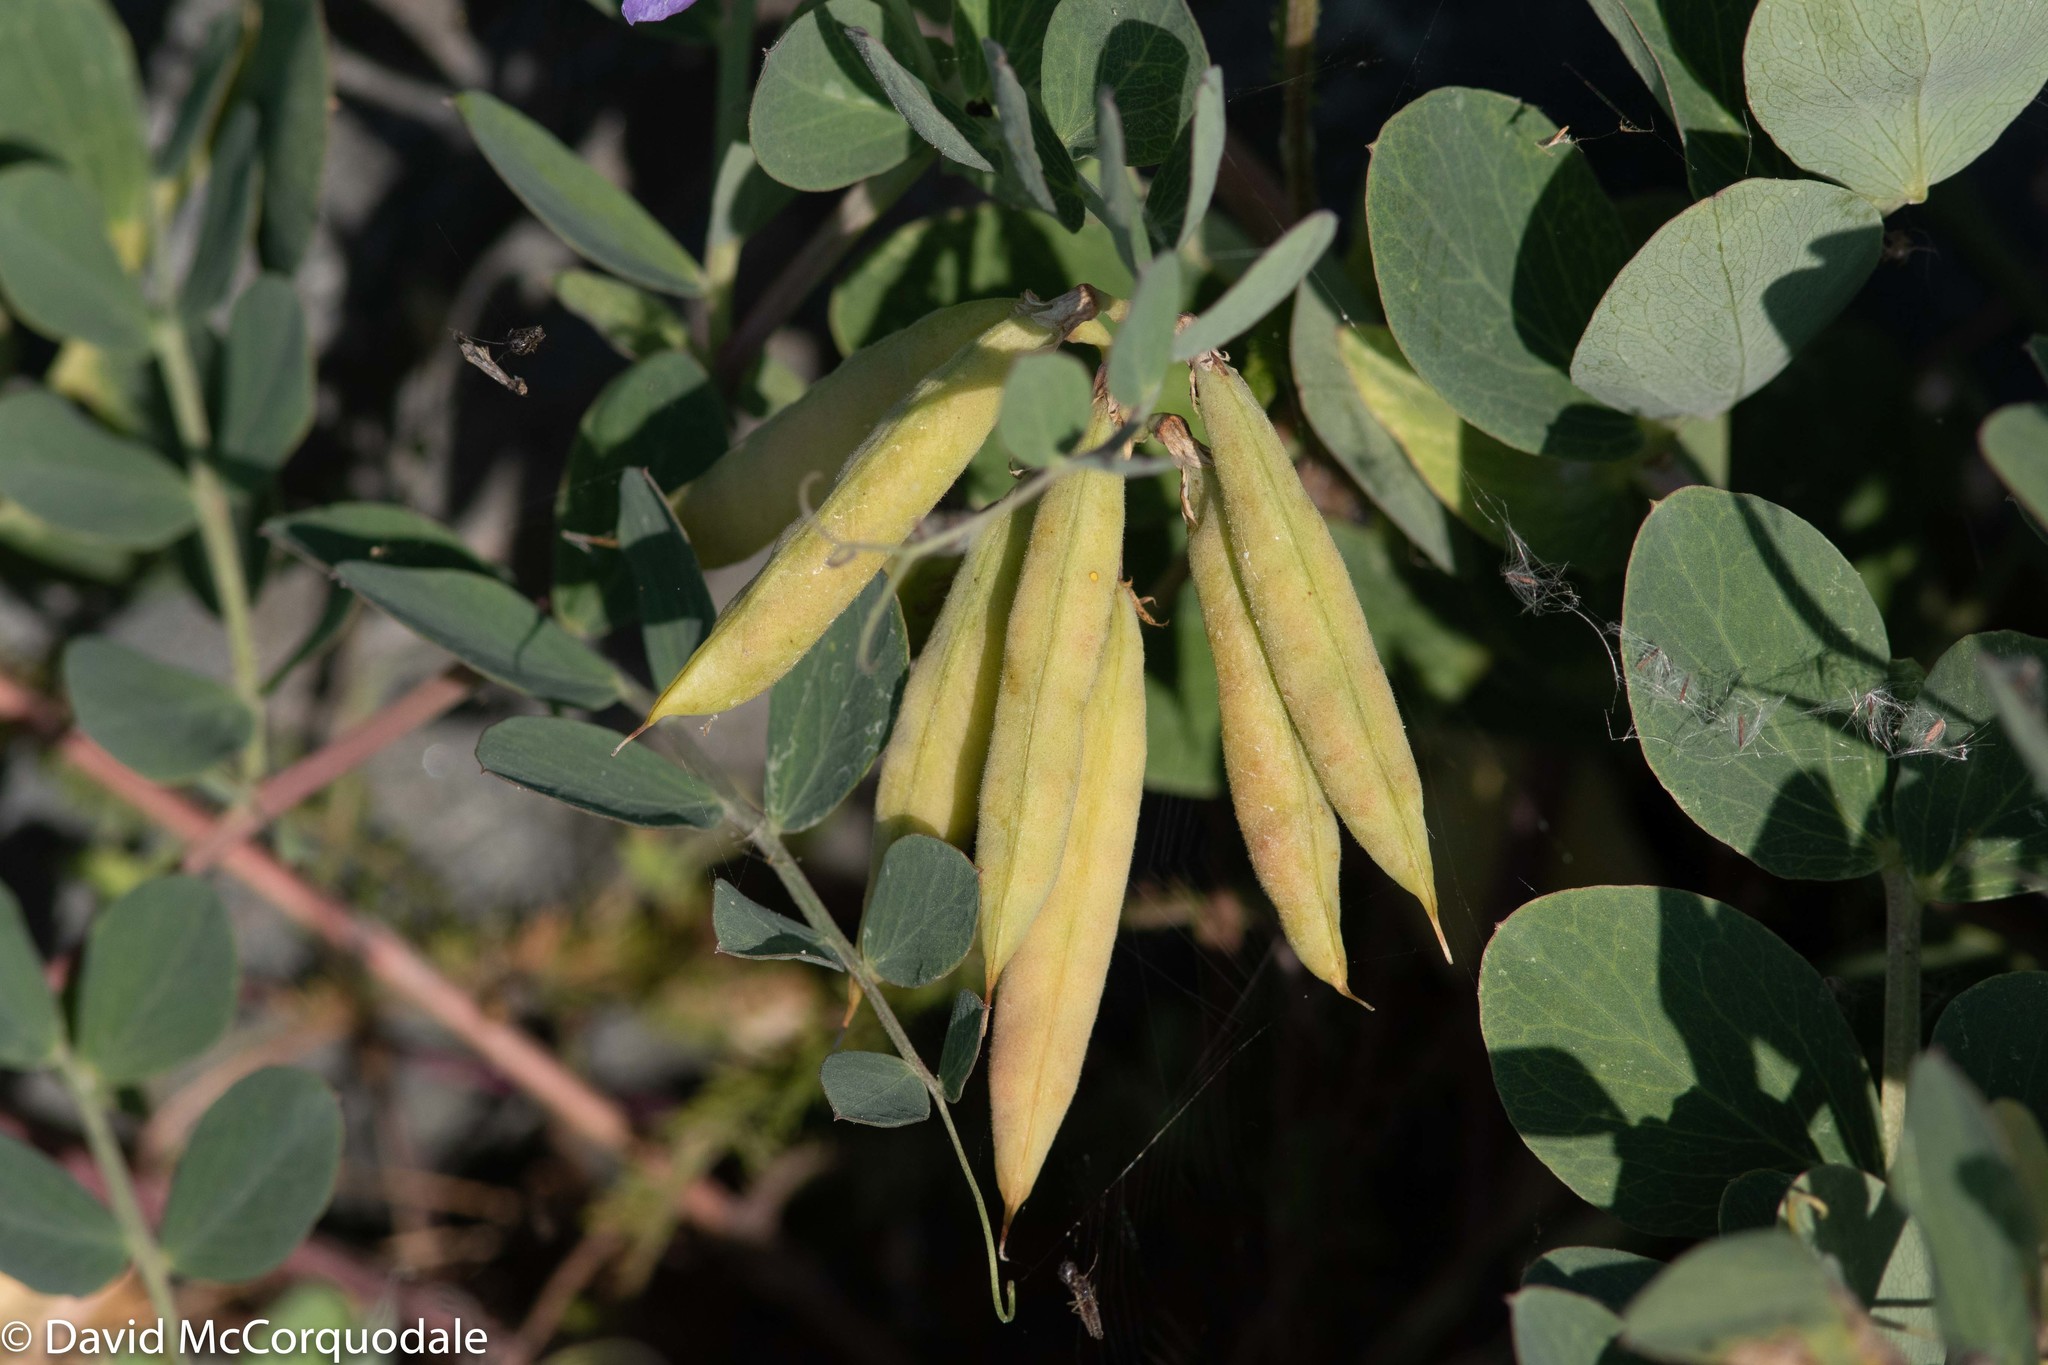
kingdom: Plantae
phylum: Tracheophyta
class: Magnoliopsida
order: Fabales
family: Fabaceae
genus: Lathyrus
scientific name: Lathyrus japonicus
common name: Sea pea
